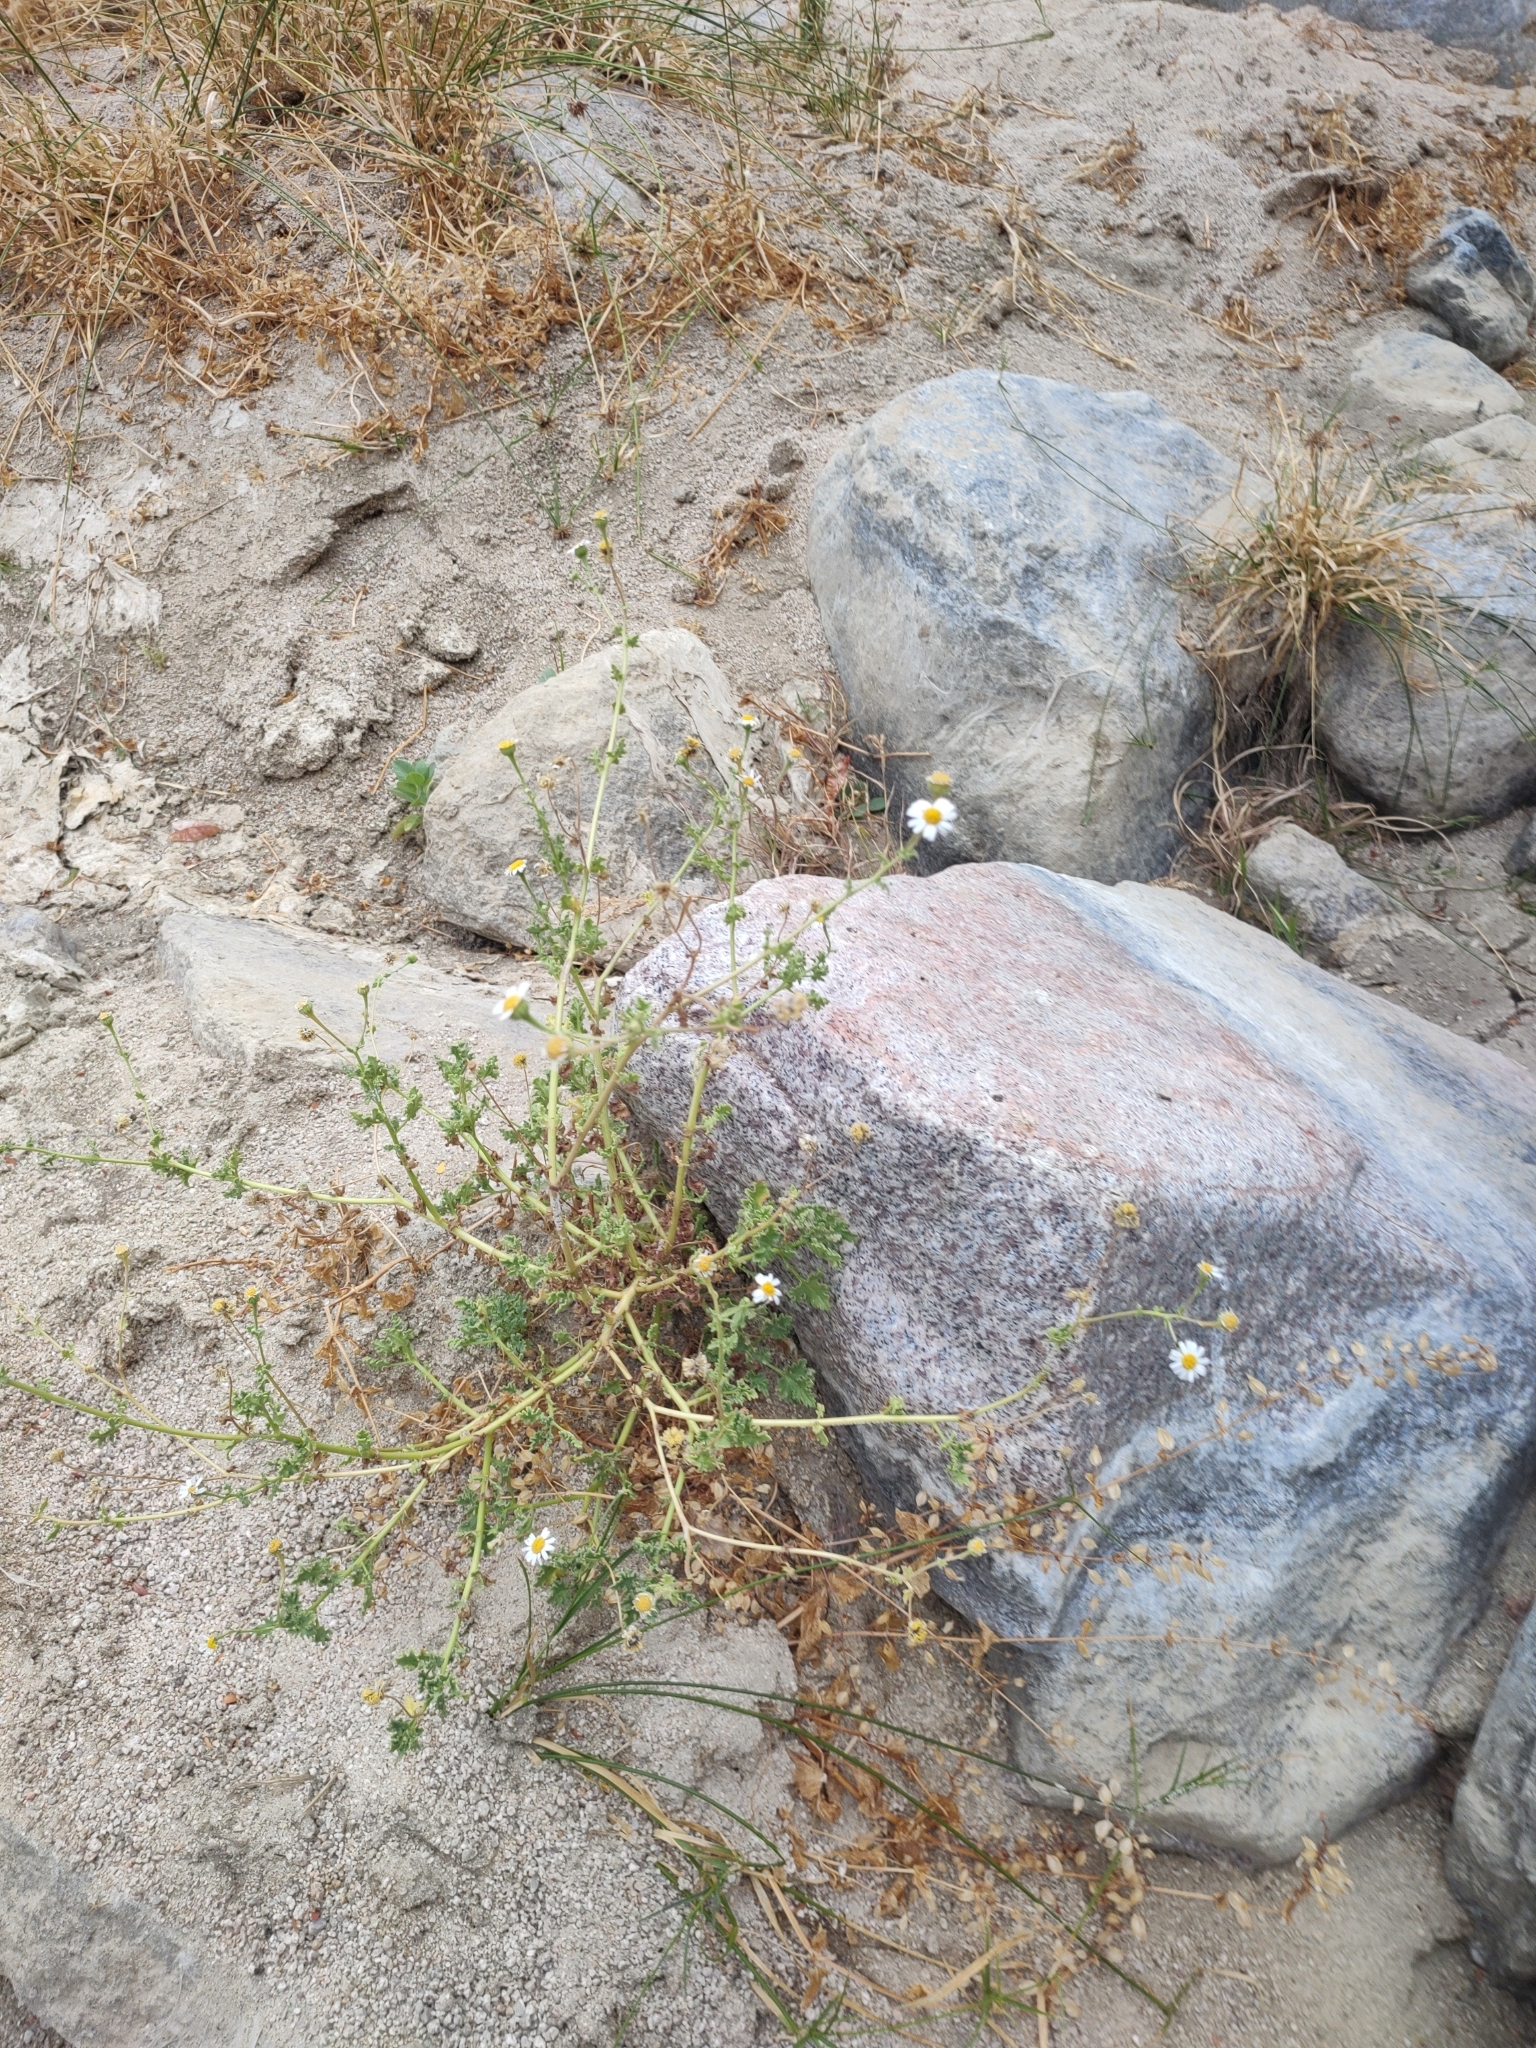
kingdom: Plantae
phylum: Tracheophyta
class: Magnoliopsida
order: Asterales
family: Asteraceae
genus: Perityle
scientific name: Perityle crassifolia
